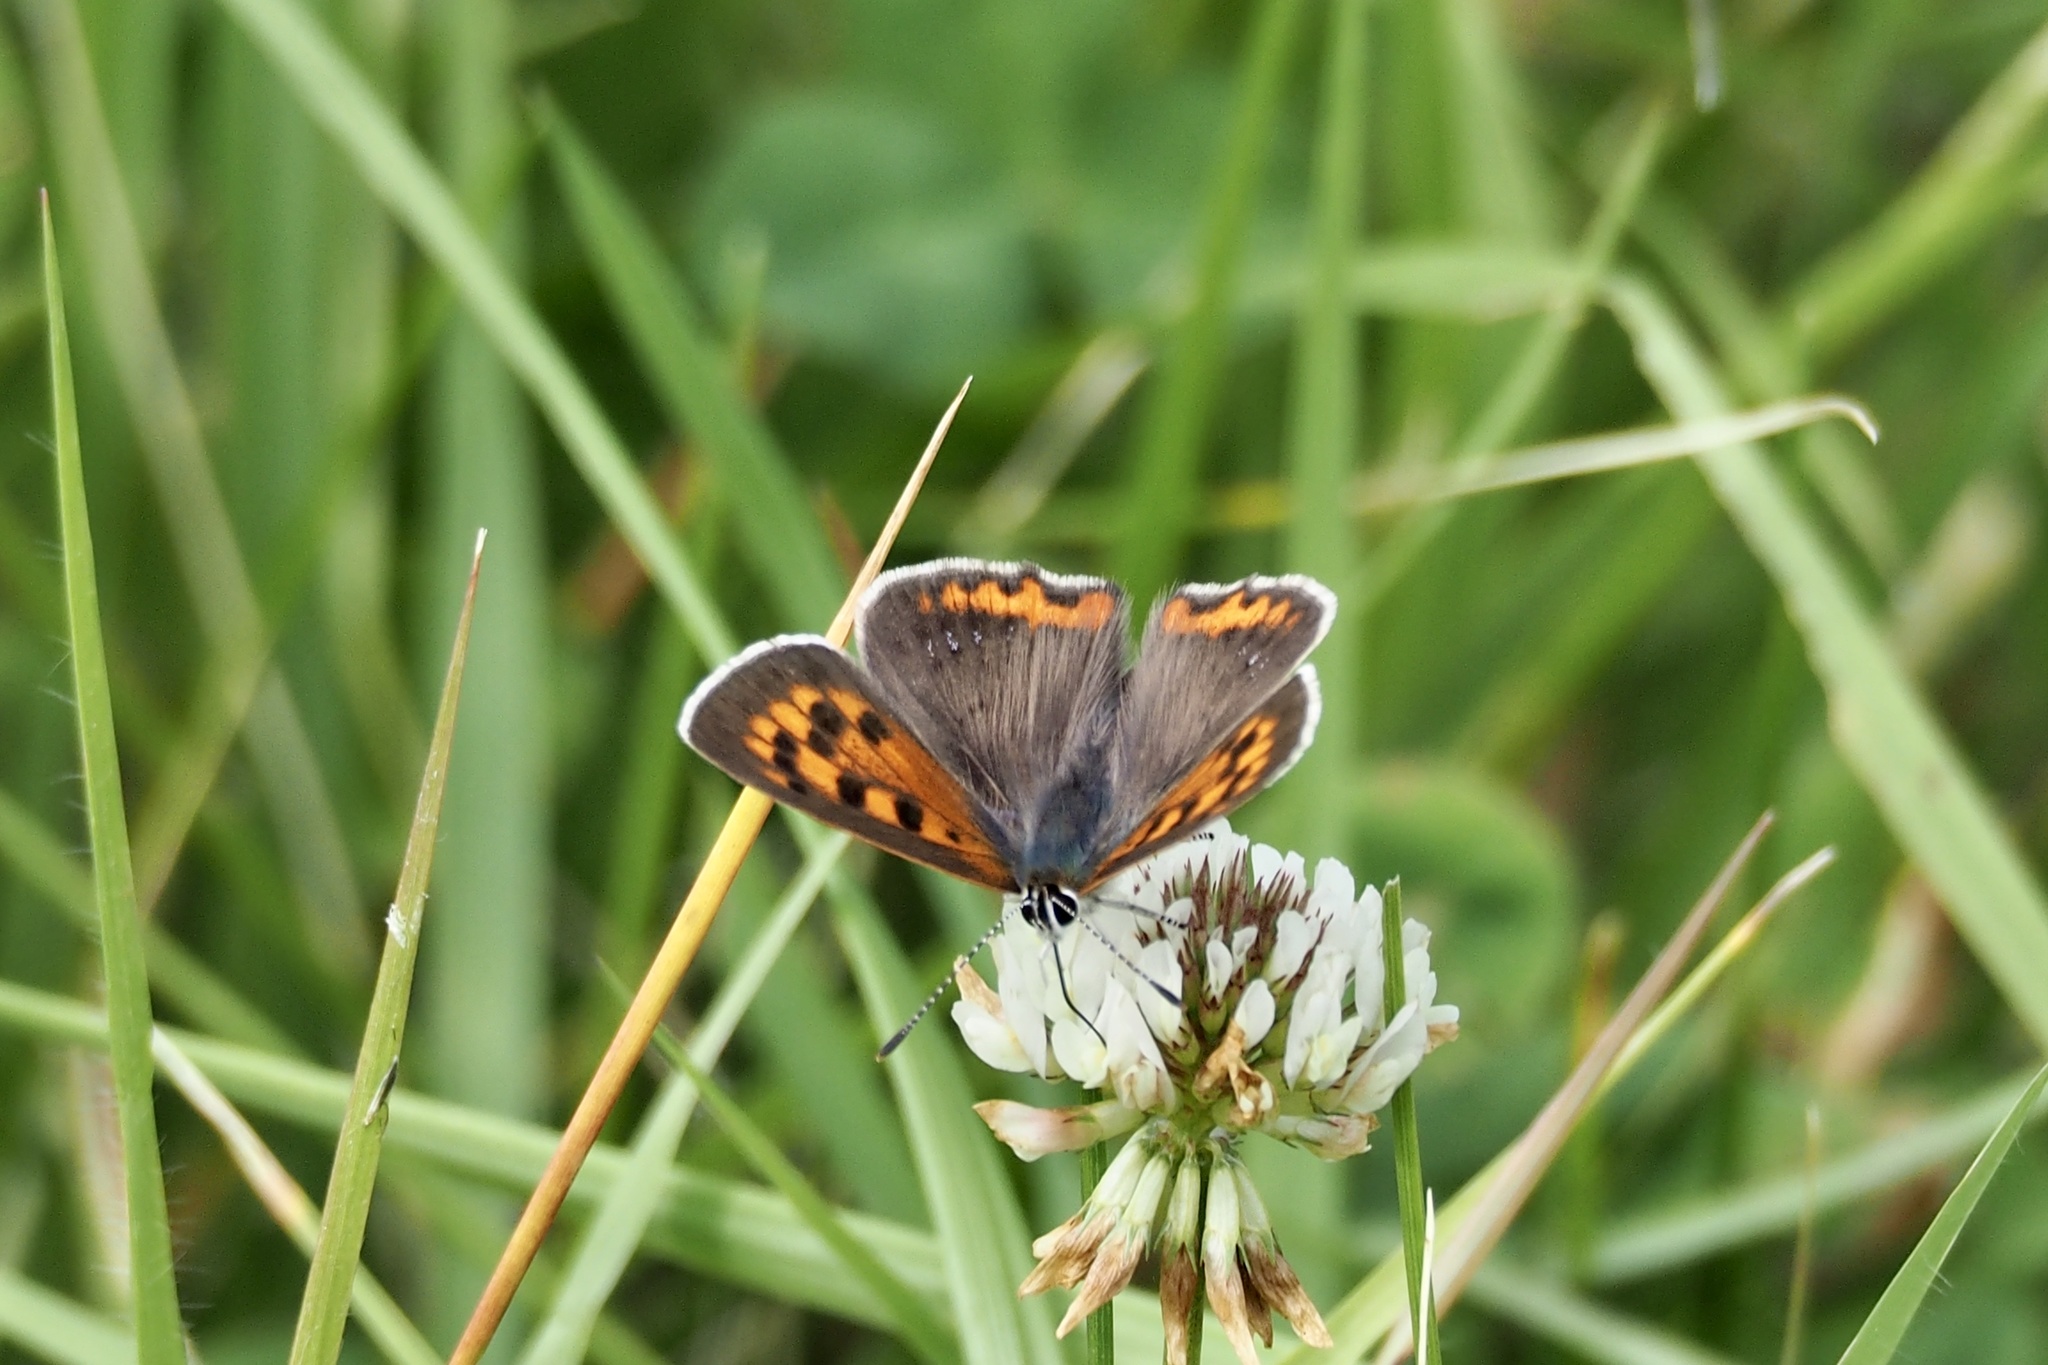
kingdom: Animalia
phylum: Arthropoda
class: Insecta
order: Lepidoptera
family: Lycaenidae
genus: Lycaena
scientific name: Lycaena phlaeas
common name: Small copper
